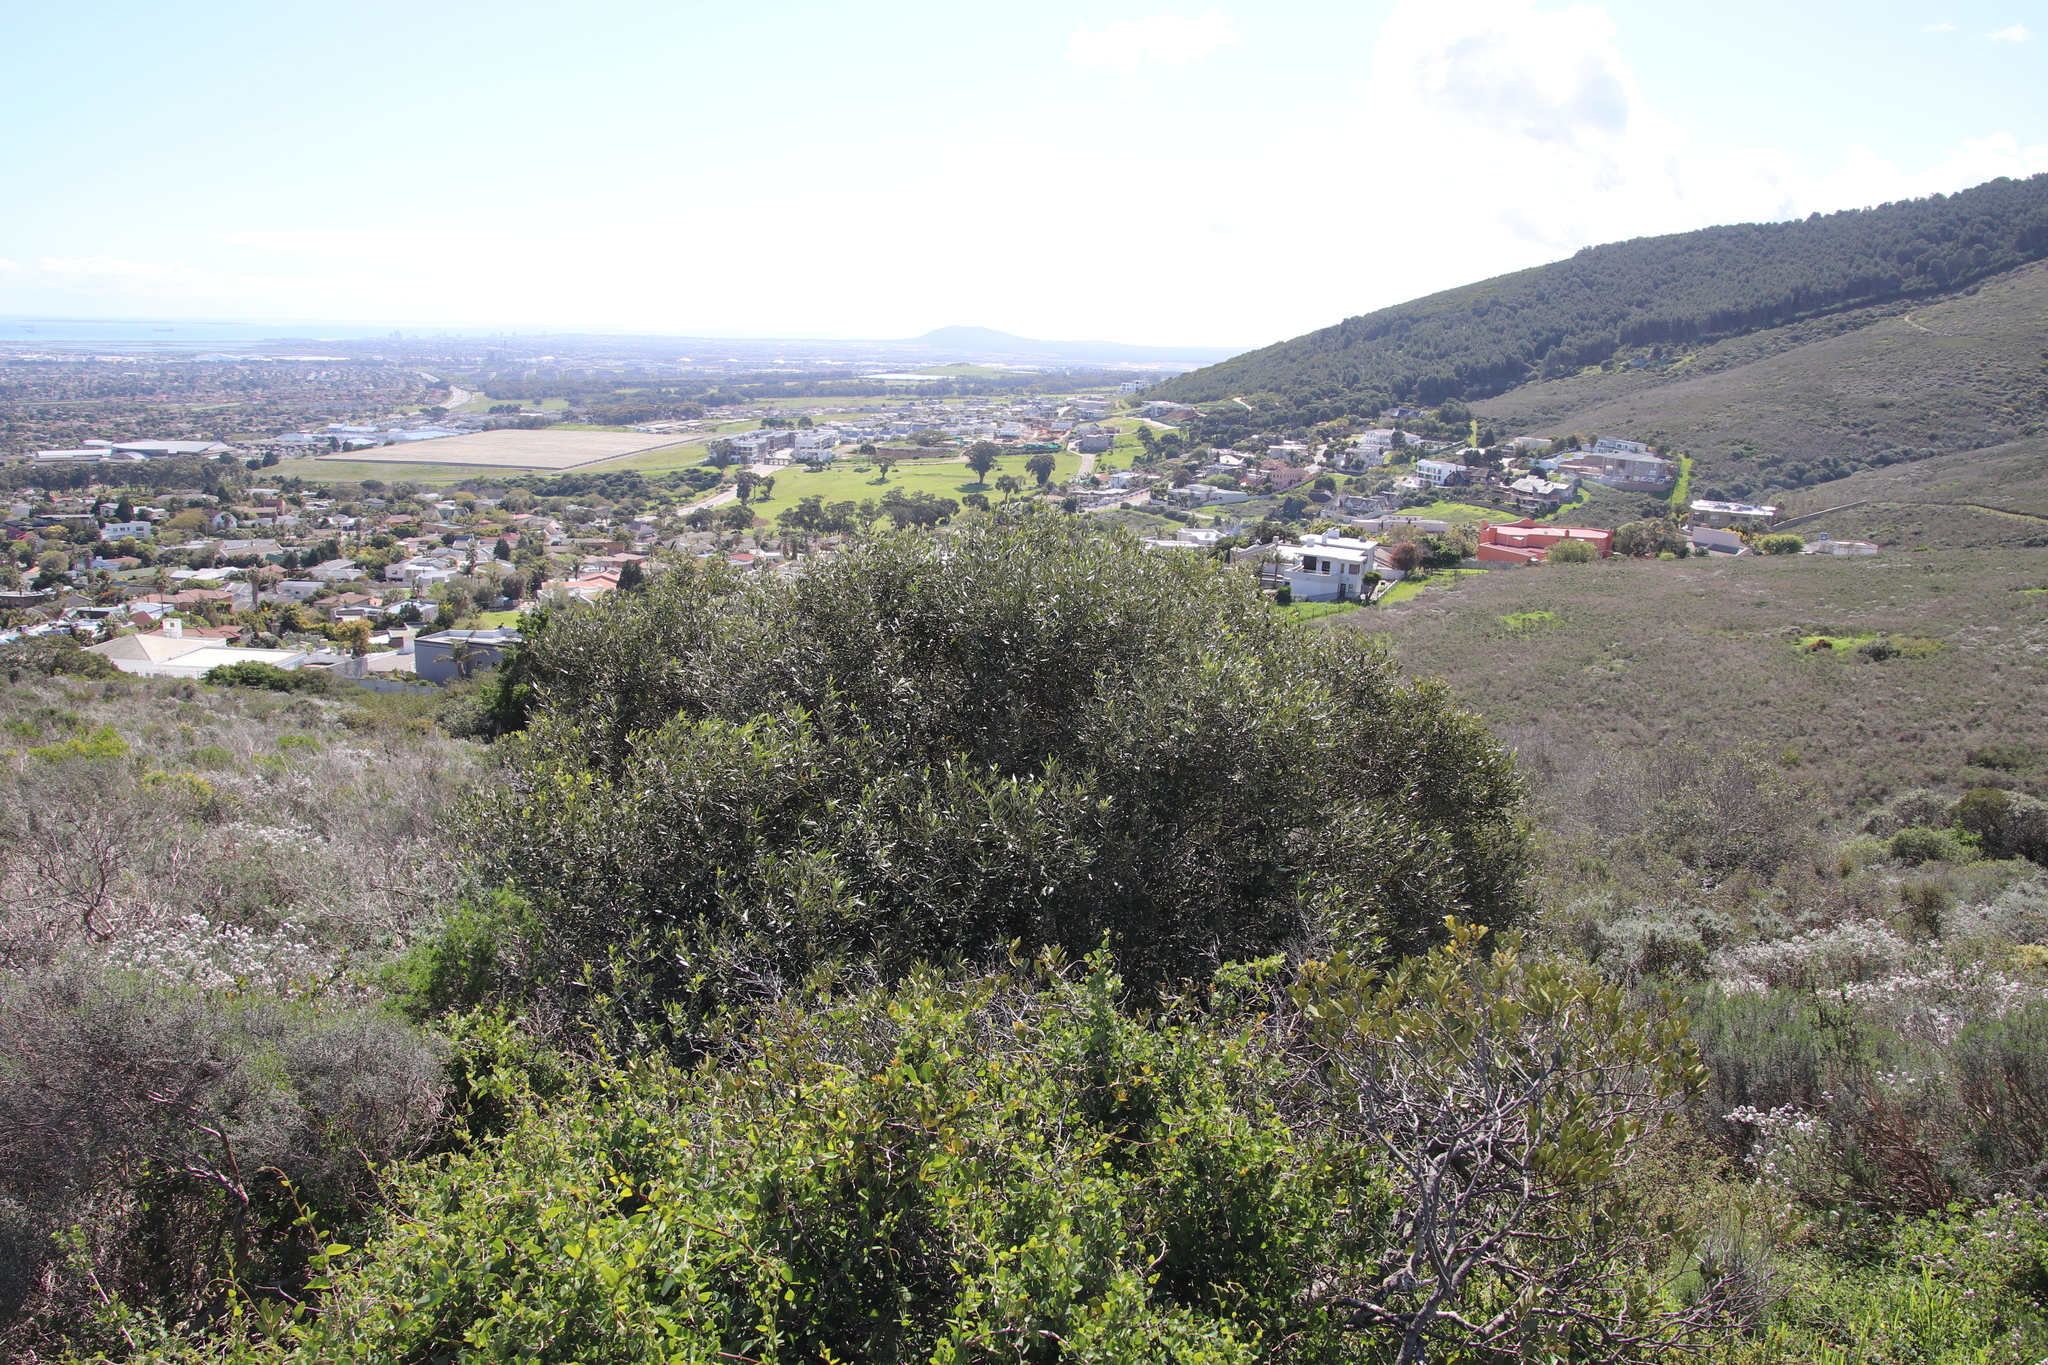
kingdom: Plantae
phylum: Tracheophyta
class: Magnoliopsida
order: Lamiales
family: Oleaceae
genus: Olea
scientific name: Olea europaea
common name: Olive
